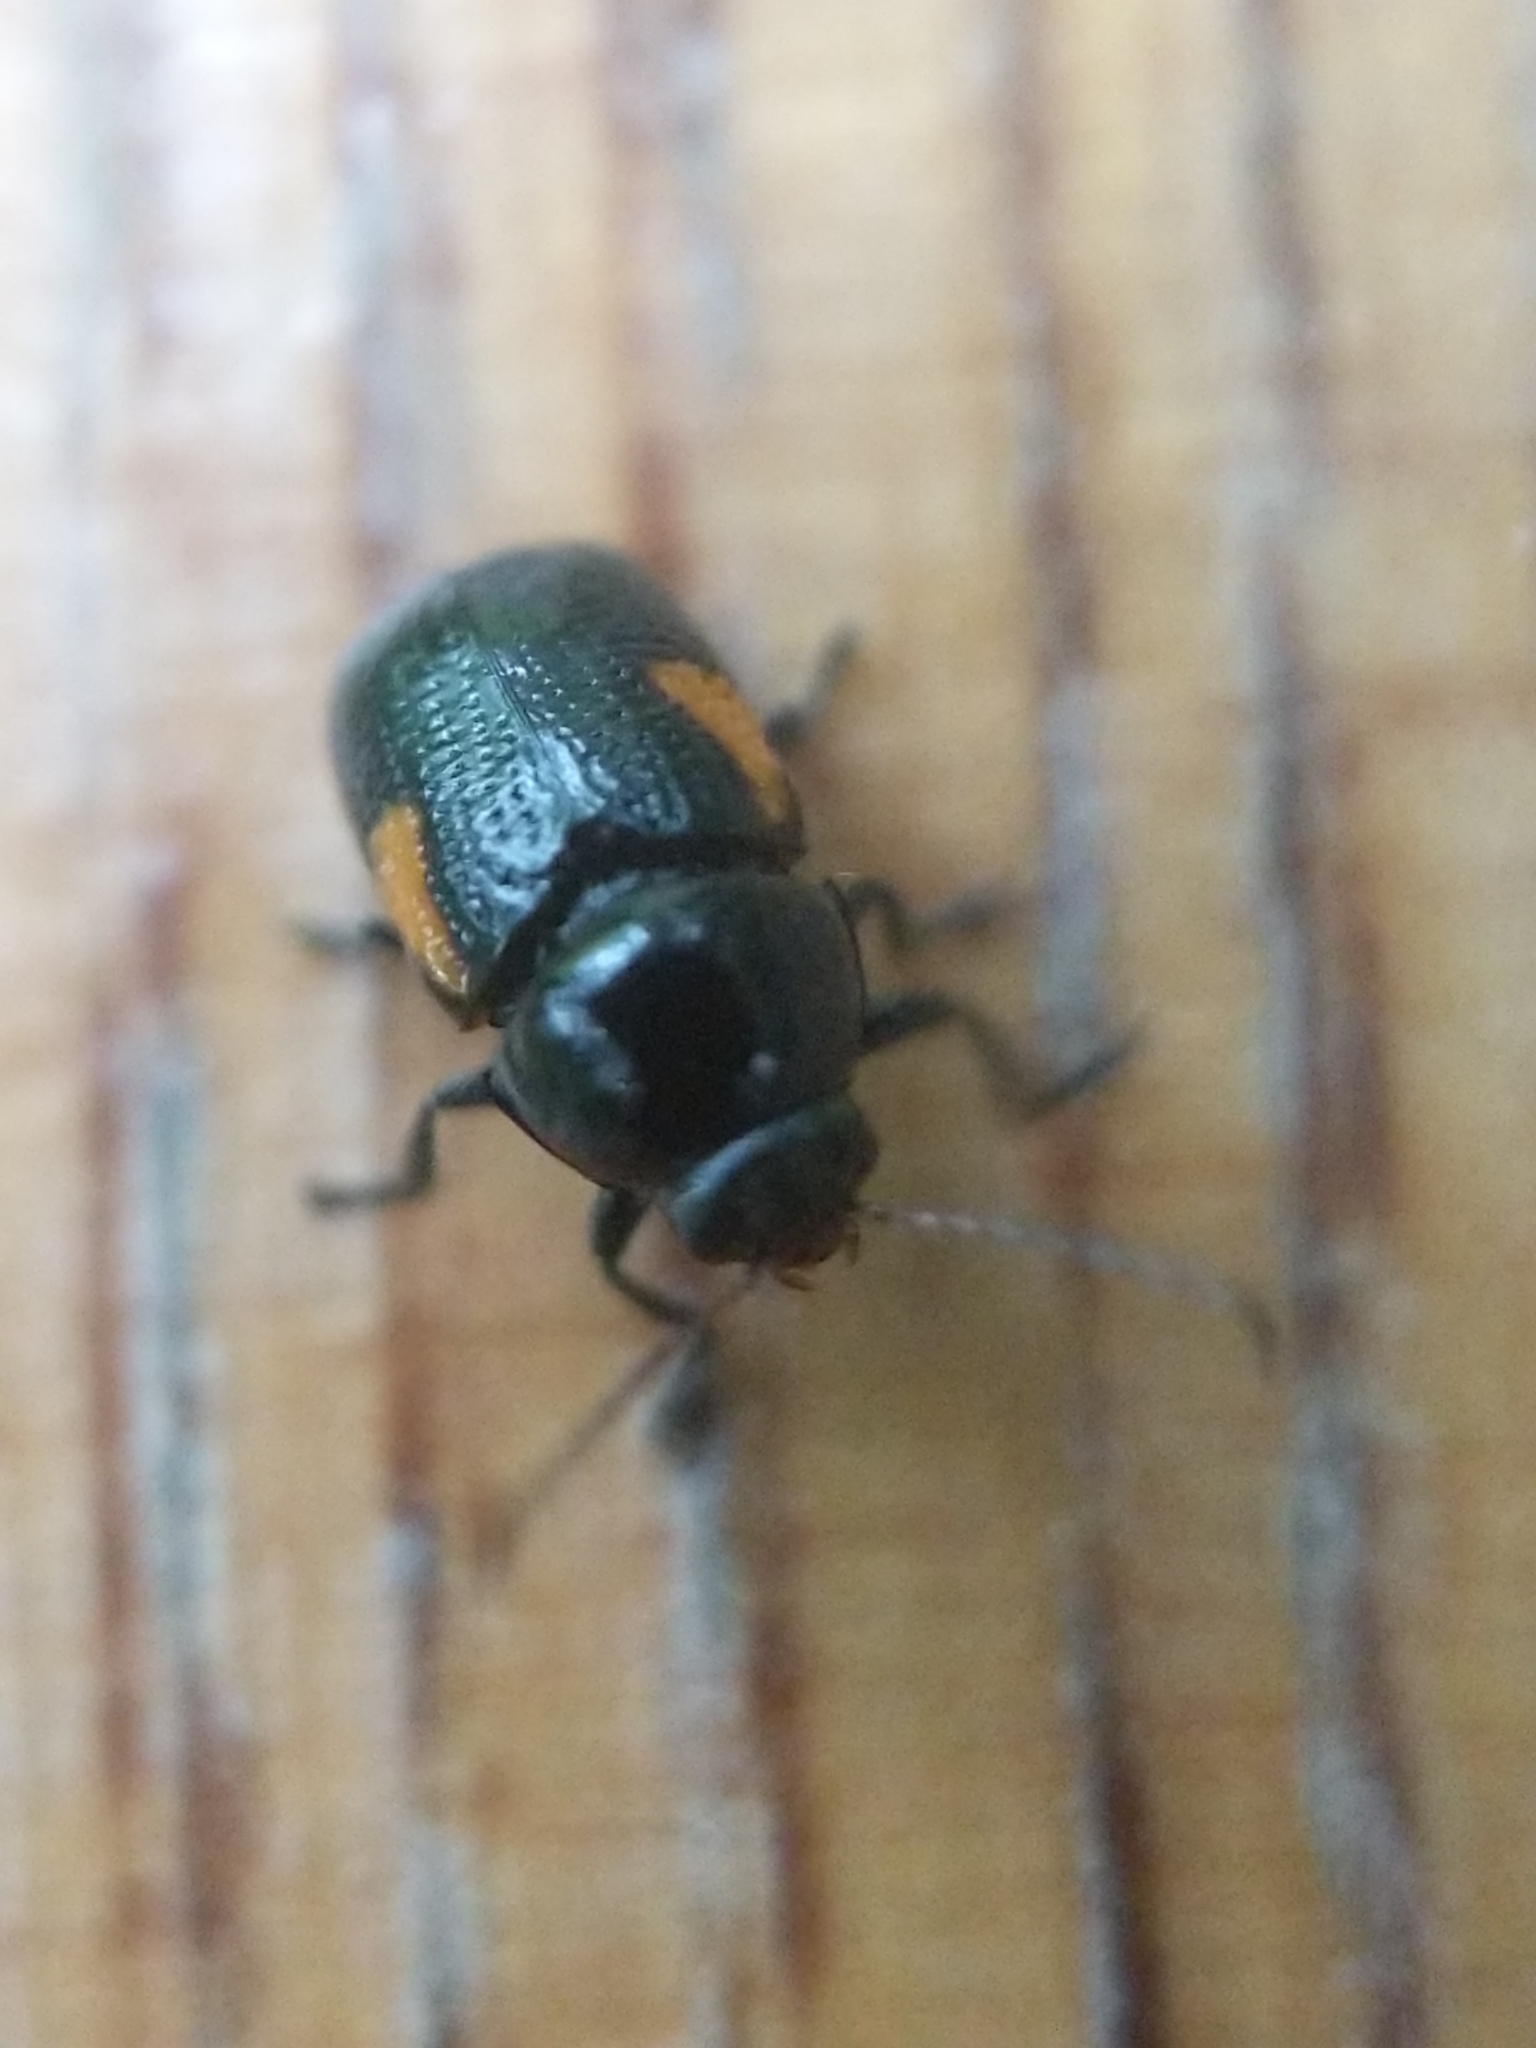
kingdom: Animalia
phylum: Arthropoda
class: Insecta
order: Coleoptera
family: Chrysomelidae
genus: Cryptocephalus
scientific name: Cryptocephalus quadruplex
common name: Black and red sumac leaf beetle
